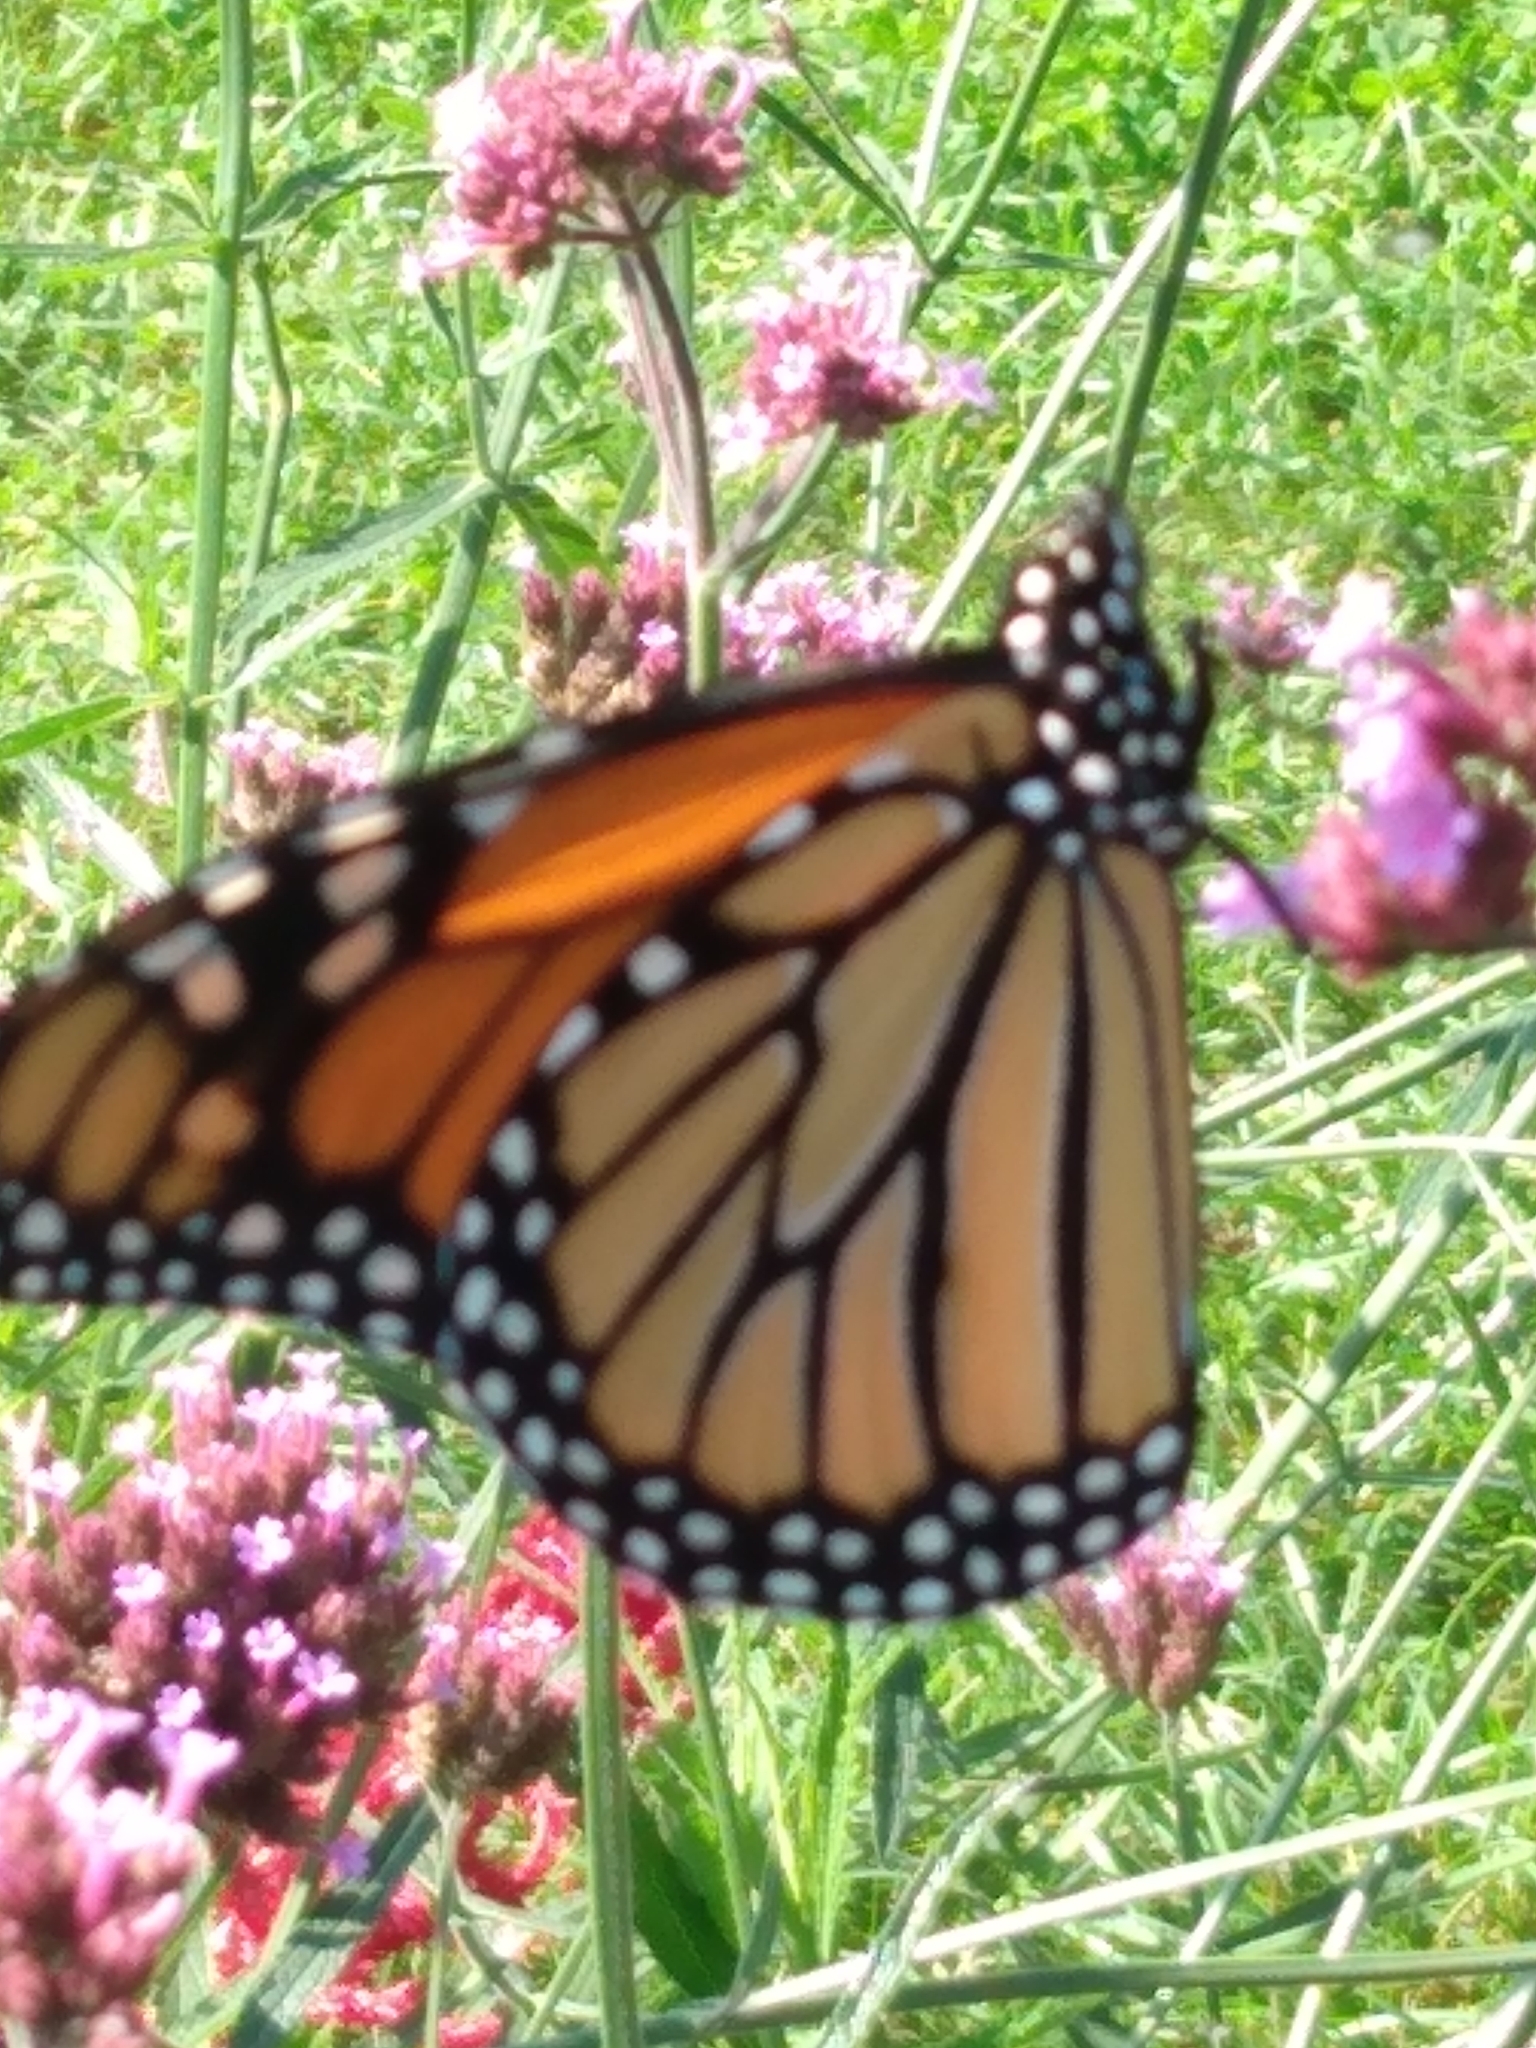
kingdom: Animalia
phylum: Arthropoda
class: Insecta
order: Lepidoptera
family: Nymphalidae
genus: Danaus
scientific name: Danaus plexippus
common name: Monarch
